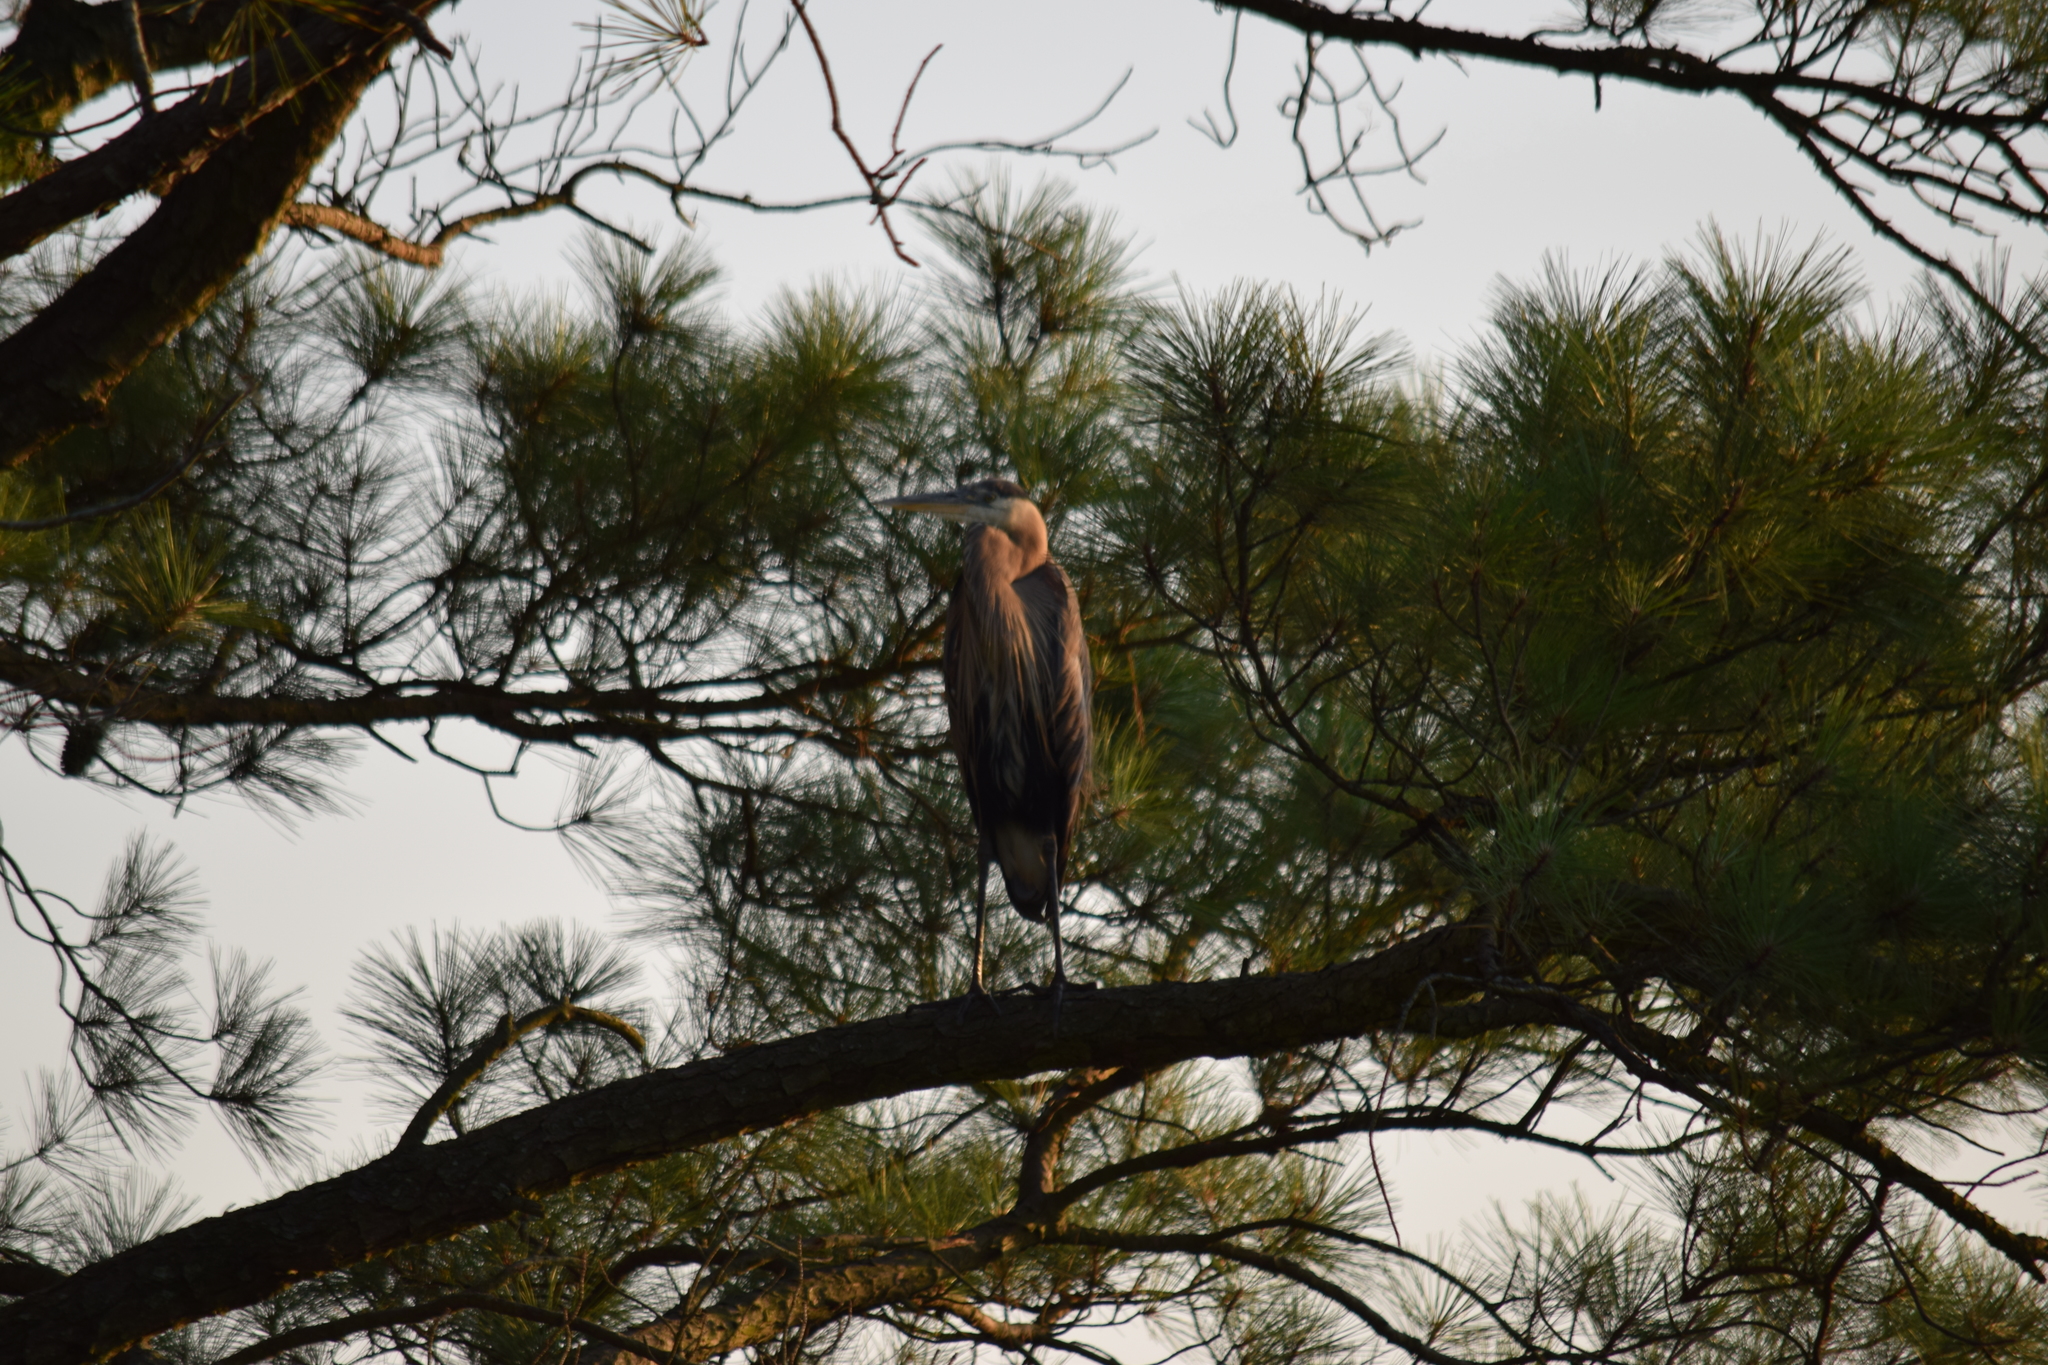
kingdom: Animalia
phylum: Chordata
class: Aves
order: Pelecaniformes
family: Ardeidae
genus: Ardea
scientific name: Ardea herodias
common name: Great blue heron
